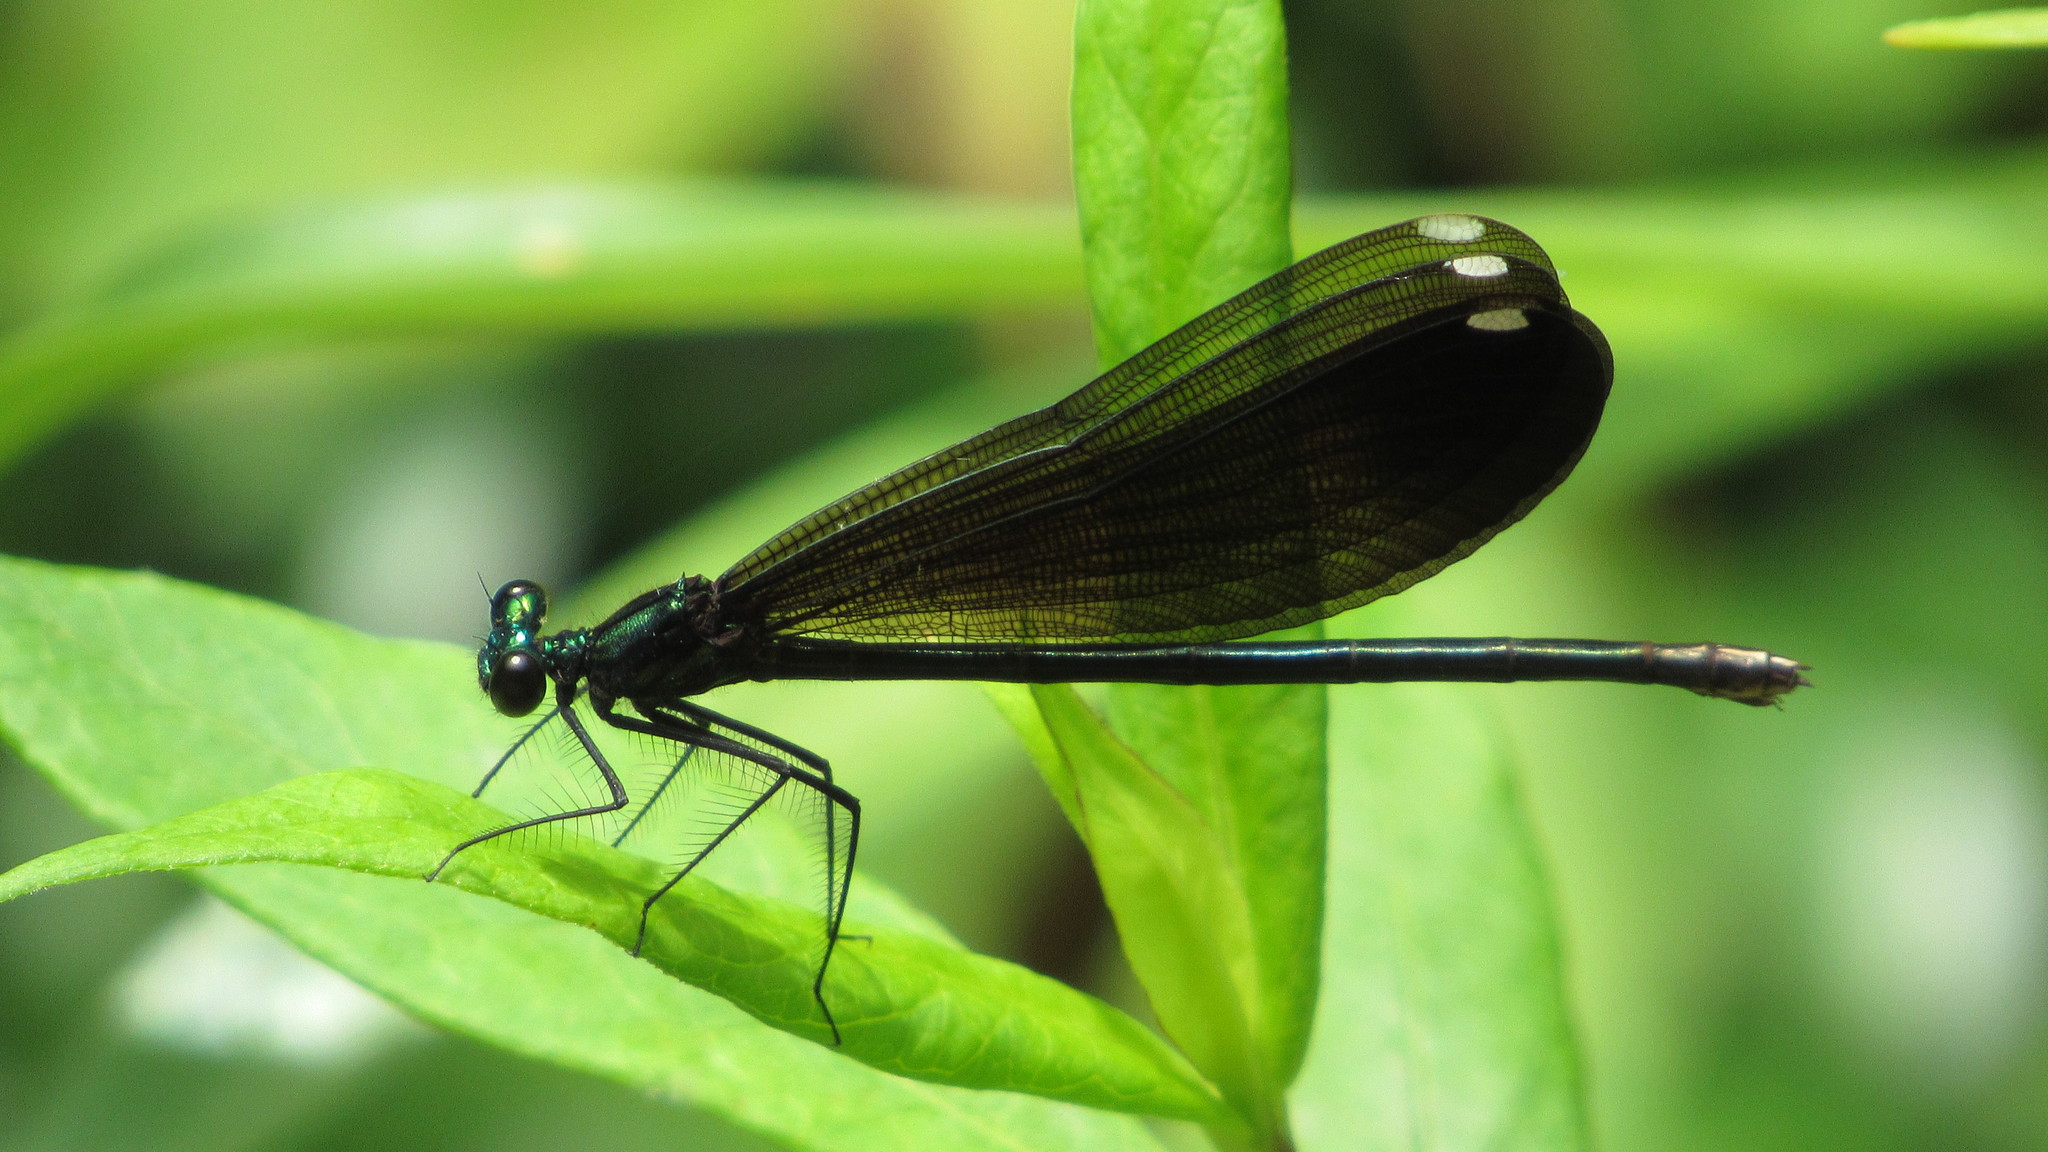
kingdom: Animalia
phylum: Arthropoda
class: Insecta
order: Odonata
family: Calopterygidae
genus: Calopteryx
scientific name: Calopteryx maculata
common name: Ebony jewelwing
